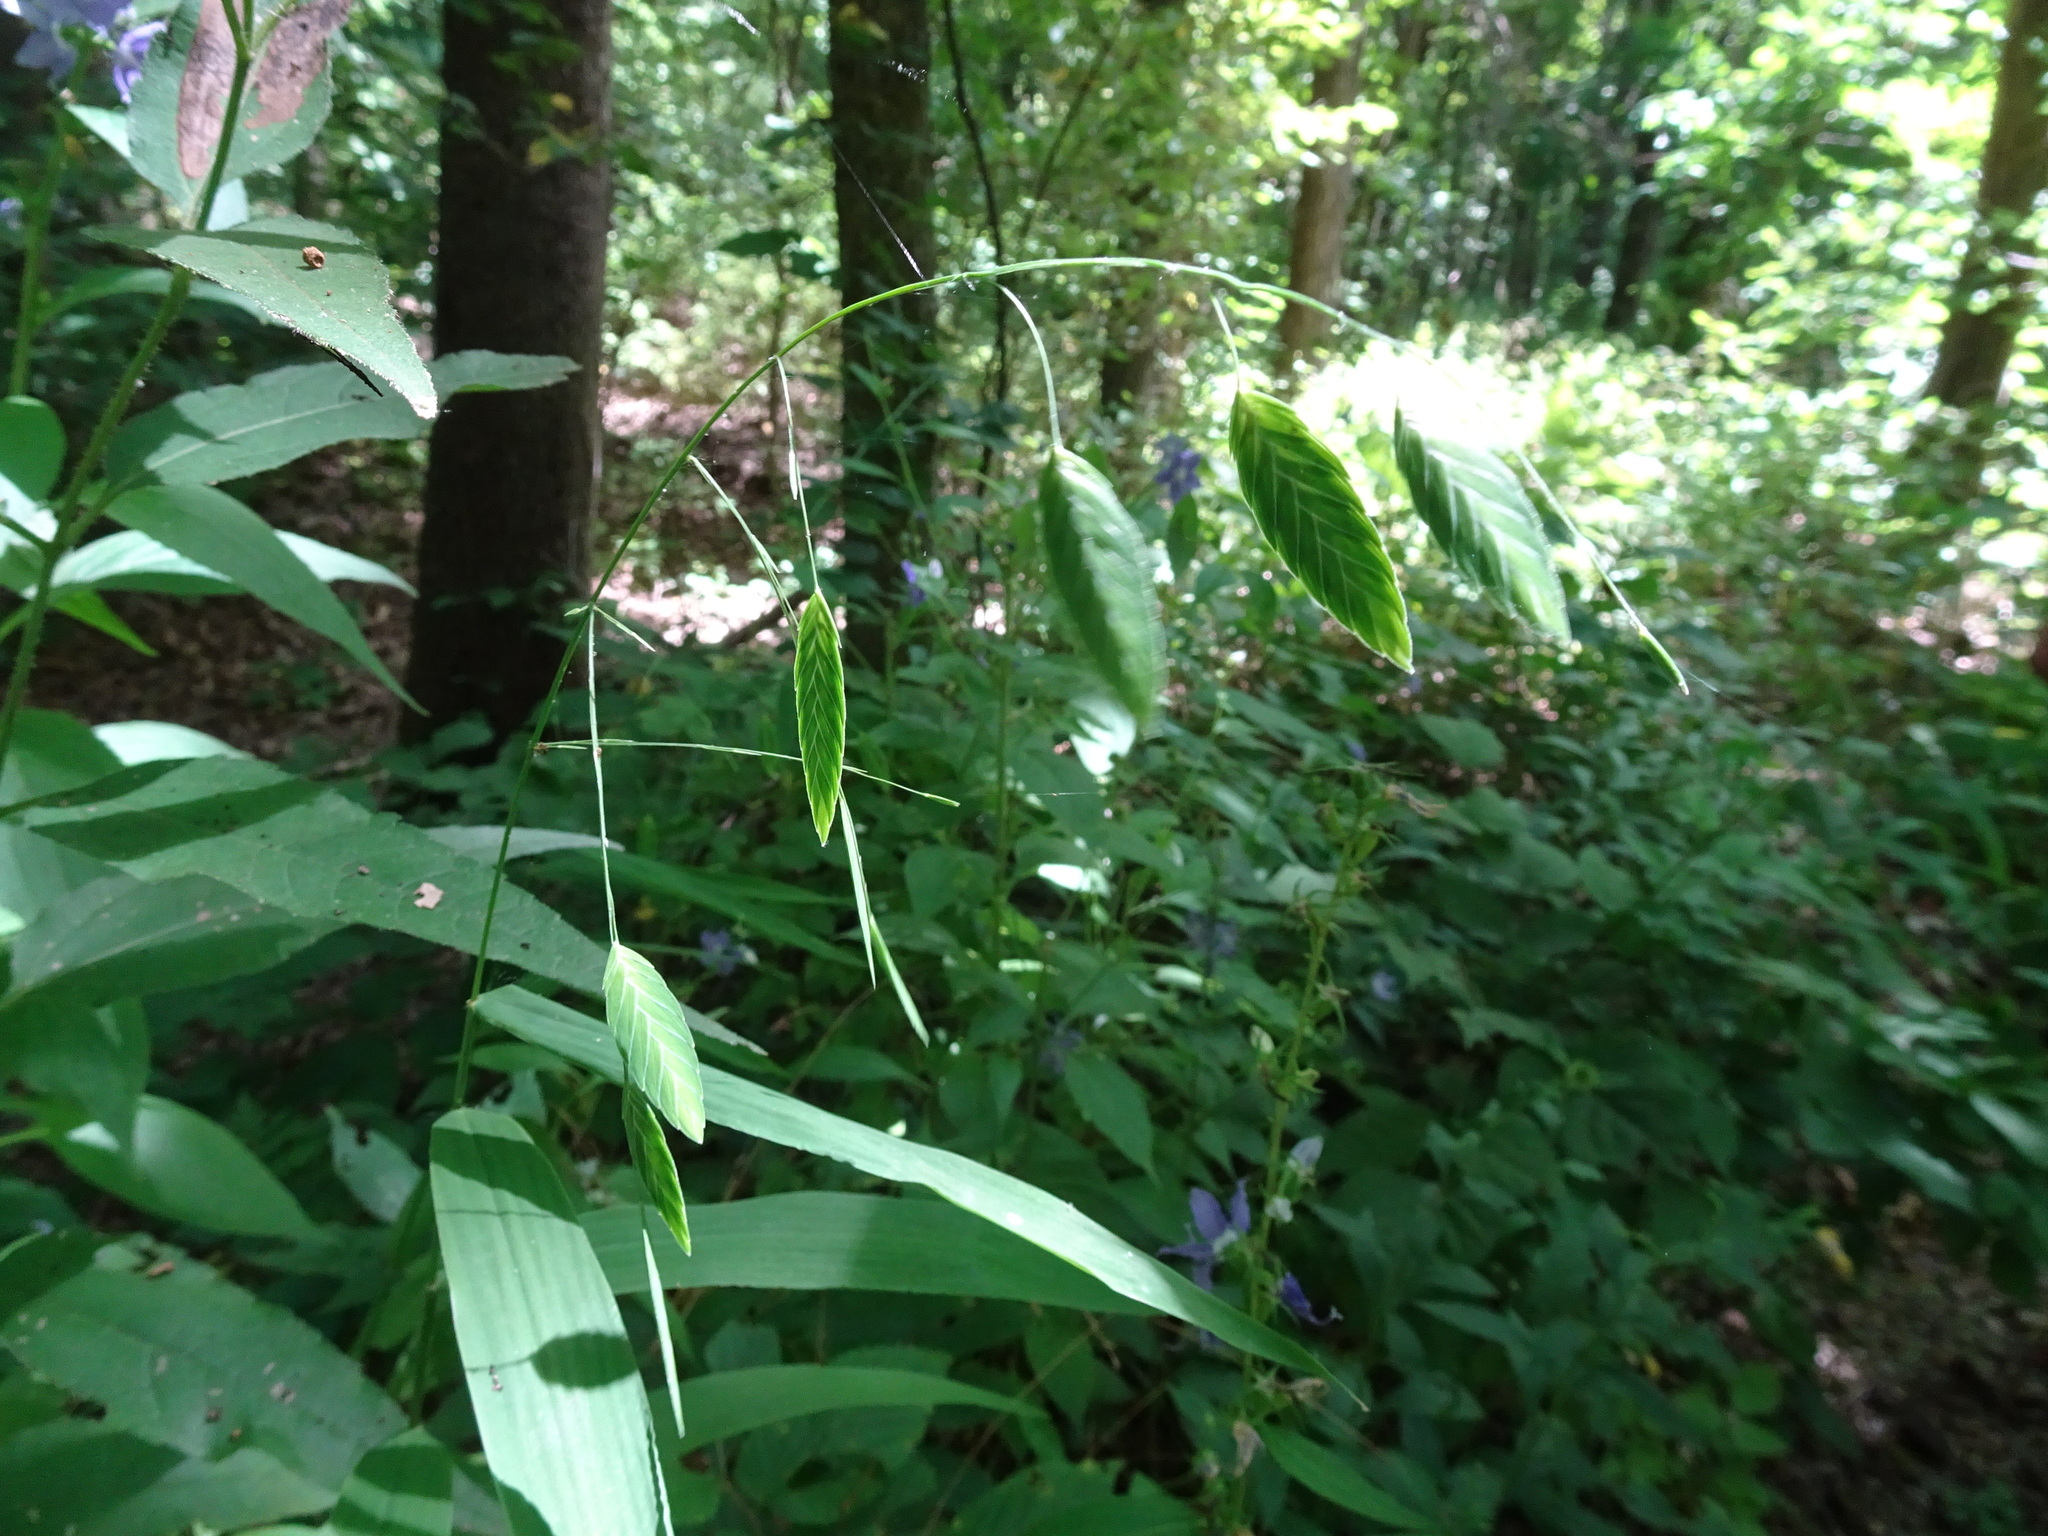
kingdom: Plantae
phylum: Tracheophyta
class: Liliopsida
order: Poales
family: Poaceae
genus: Chasmanthium
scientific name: Chasmanthium latifolium
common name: Broad-leaved chasmanthium
